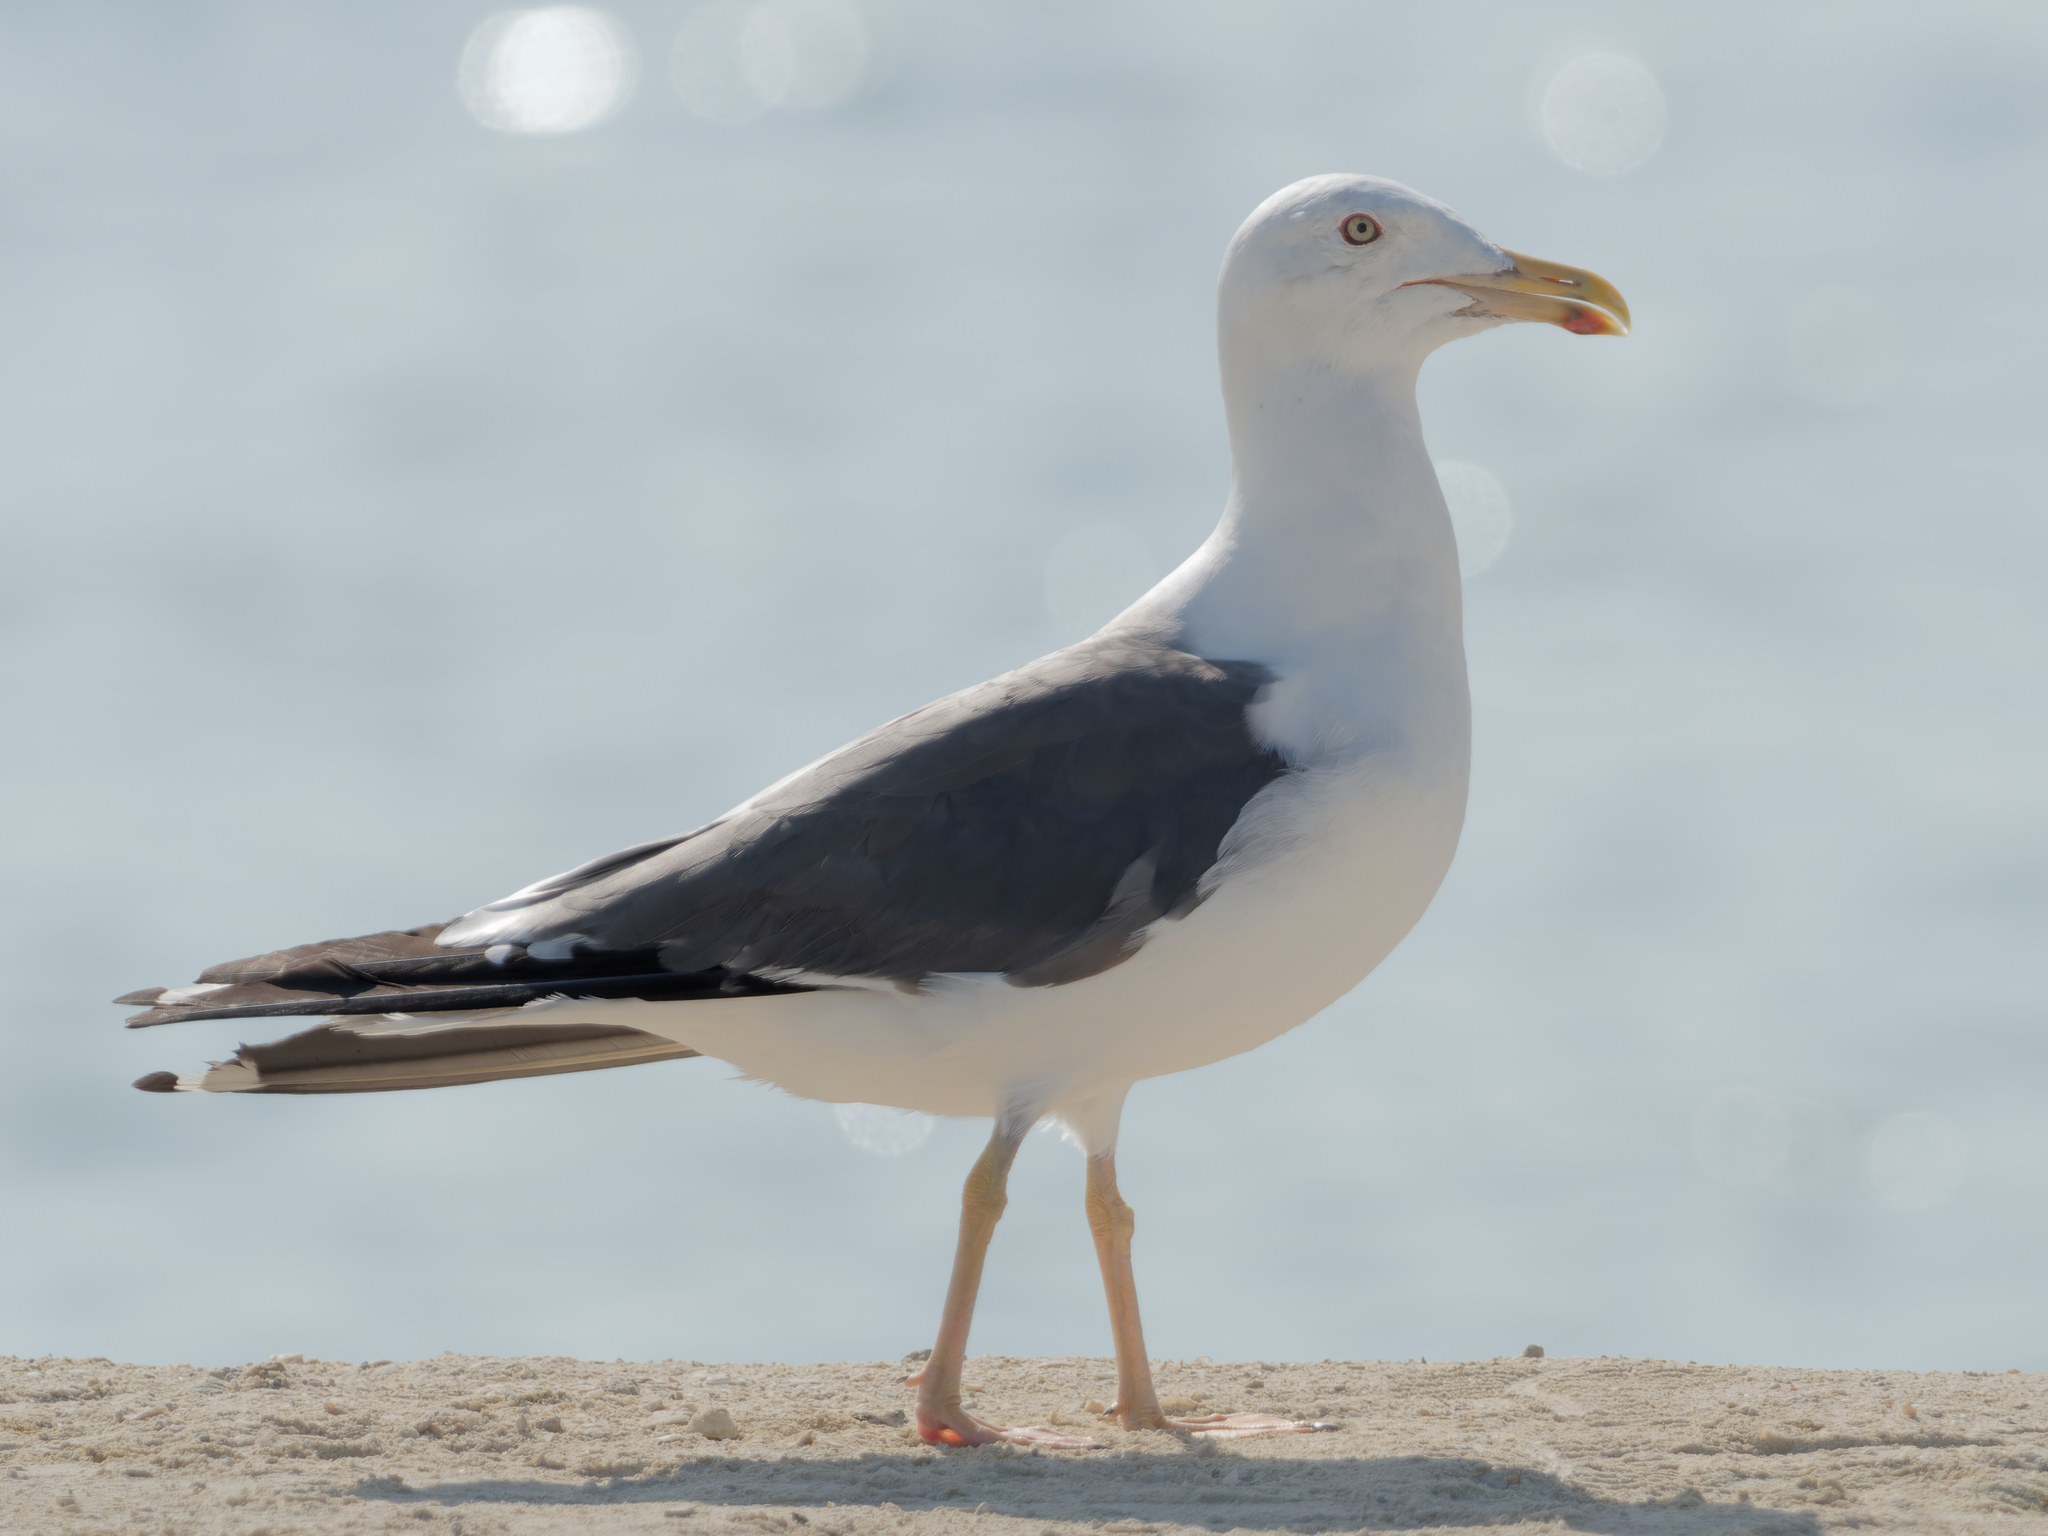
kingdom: Animalia
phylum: Chordata
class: Aves
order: Charadriiformes
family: Laridae
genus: Larus
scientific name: Larus fuscus
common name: Lesser black-backed gull
